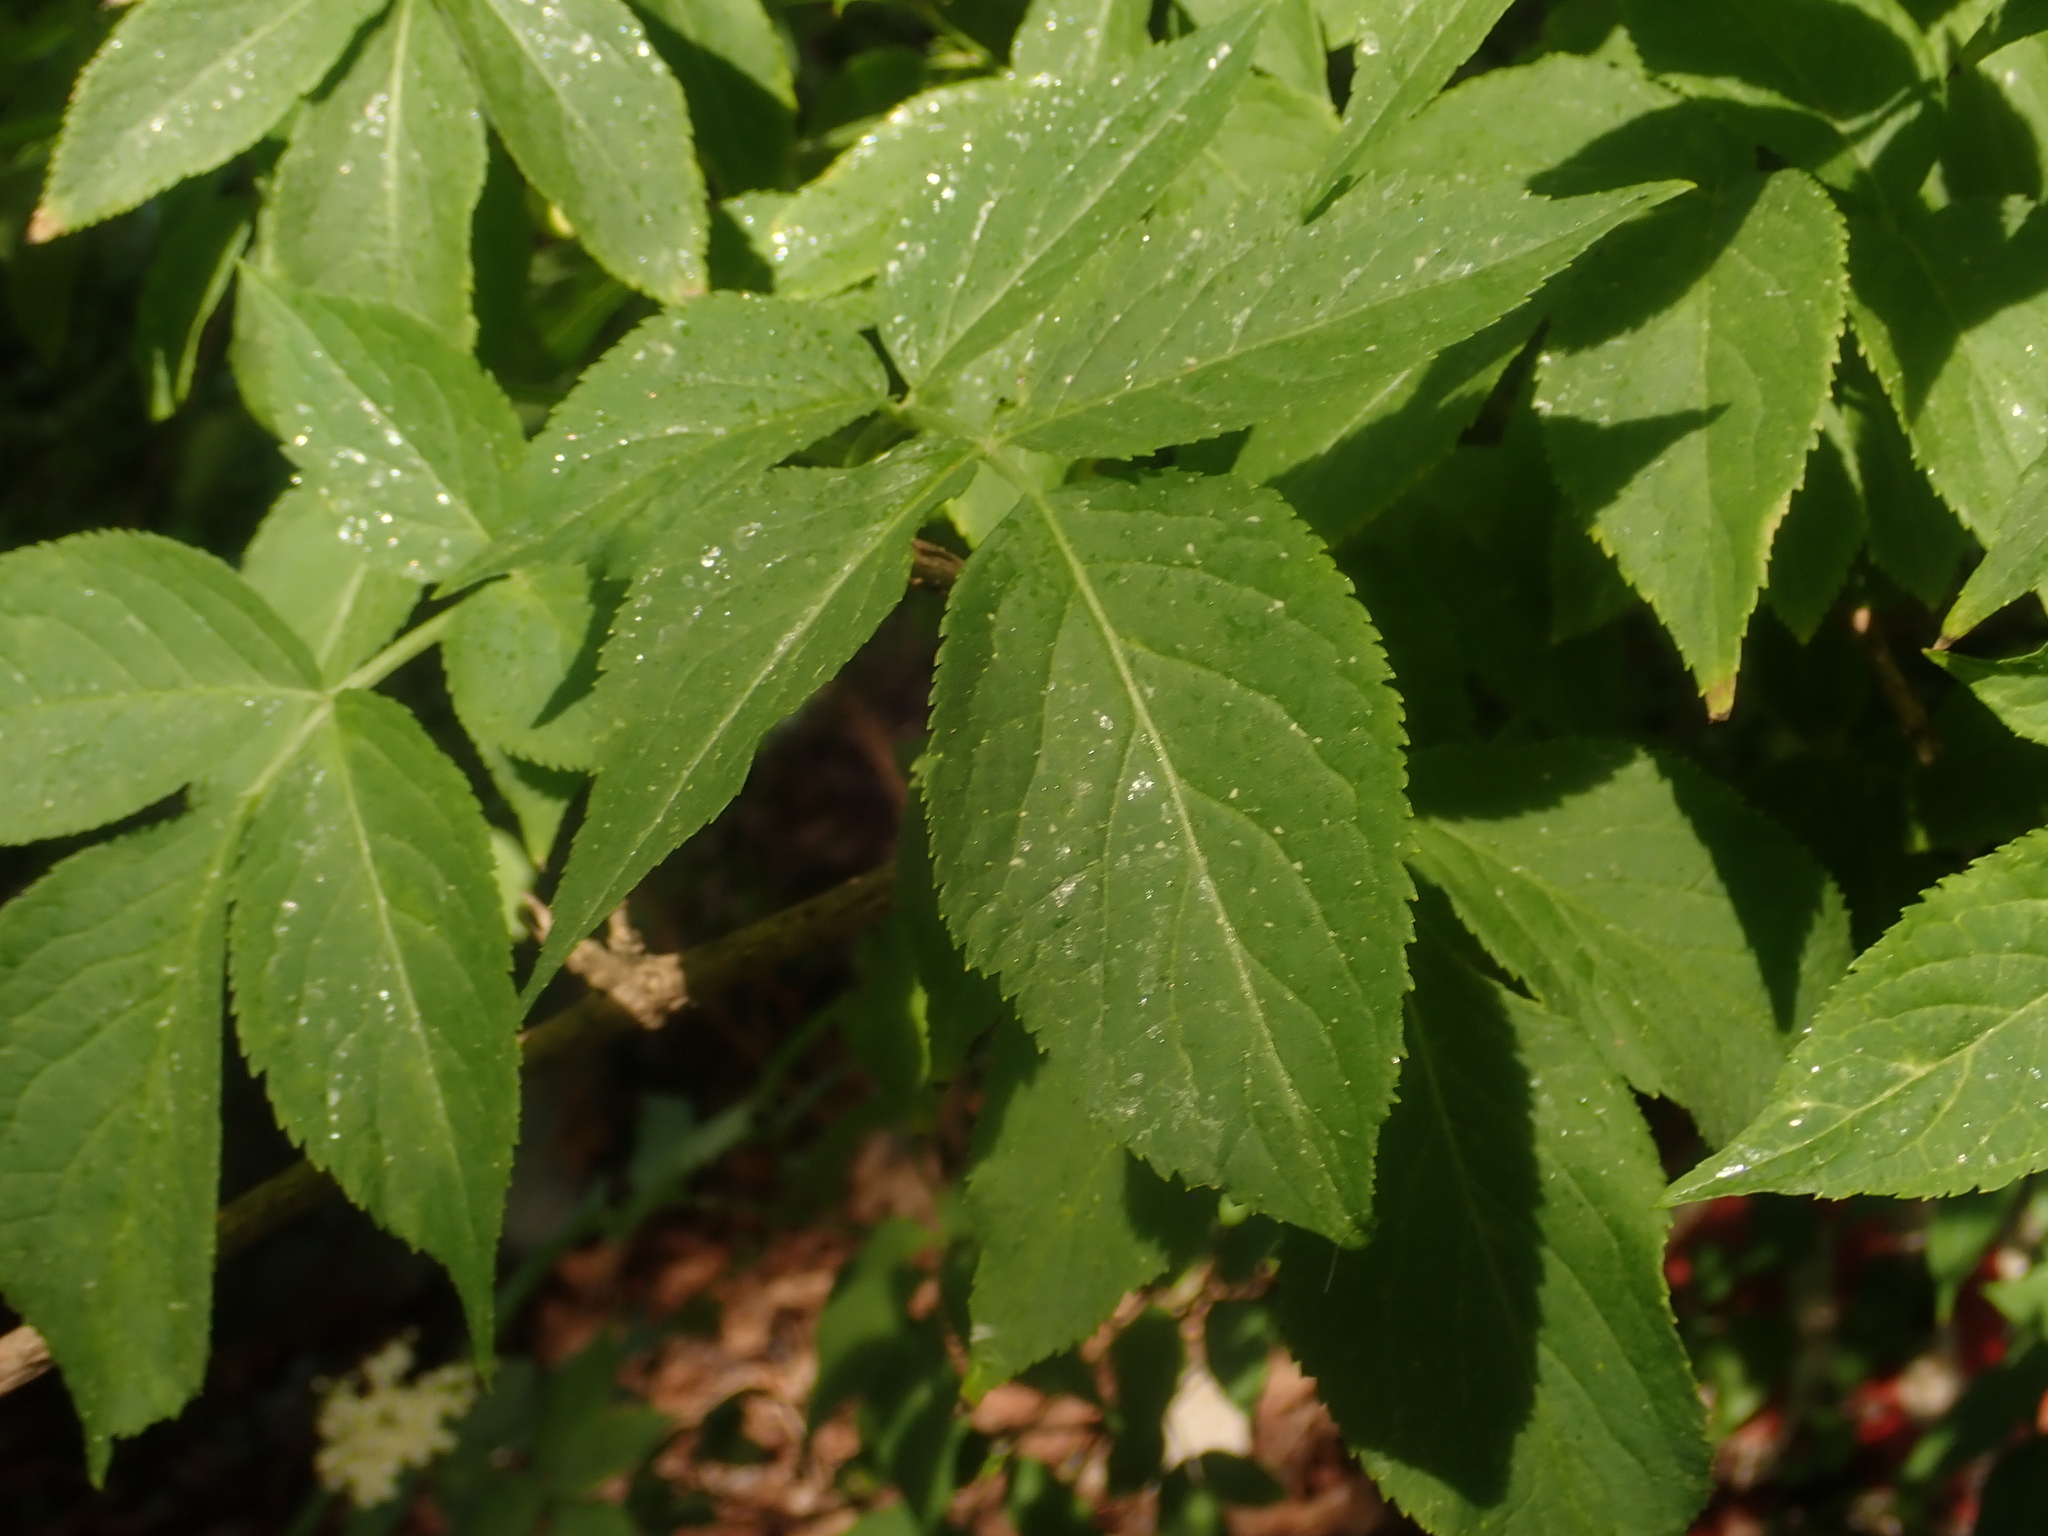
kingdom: Plantae
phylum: Tracheophyta
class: Magnoliopsida
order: Dipsacales
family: Viburnaceae
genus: Sambucus
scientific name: Sambucus nigra
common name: Elder
